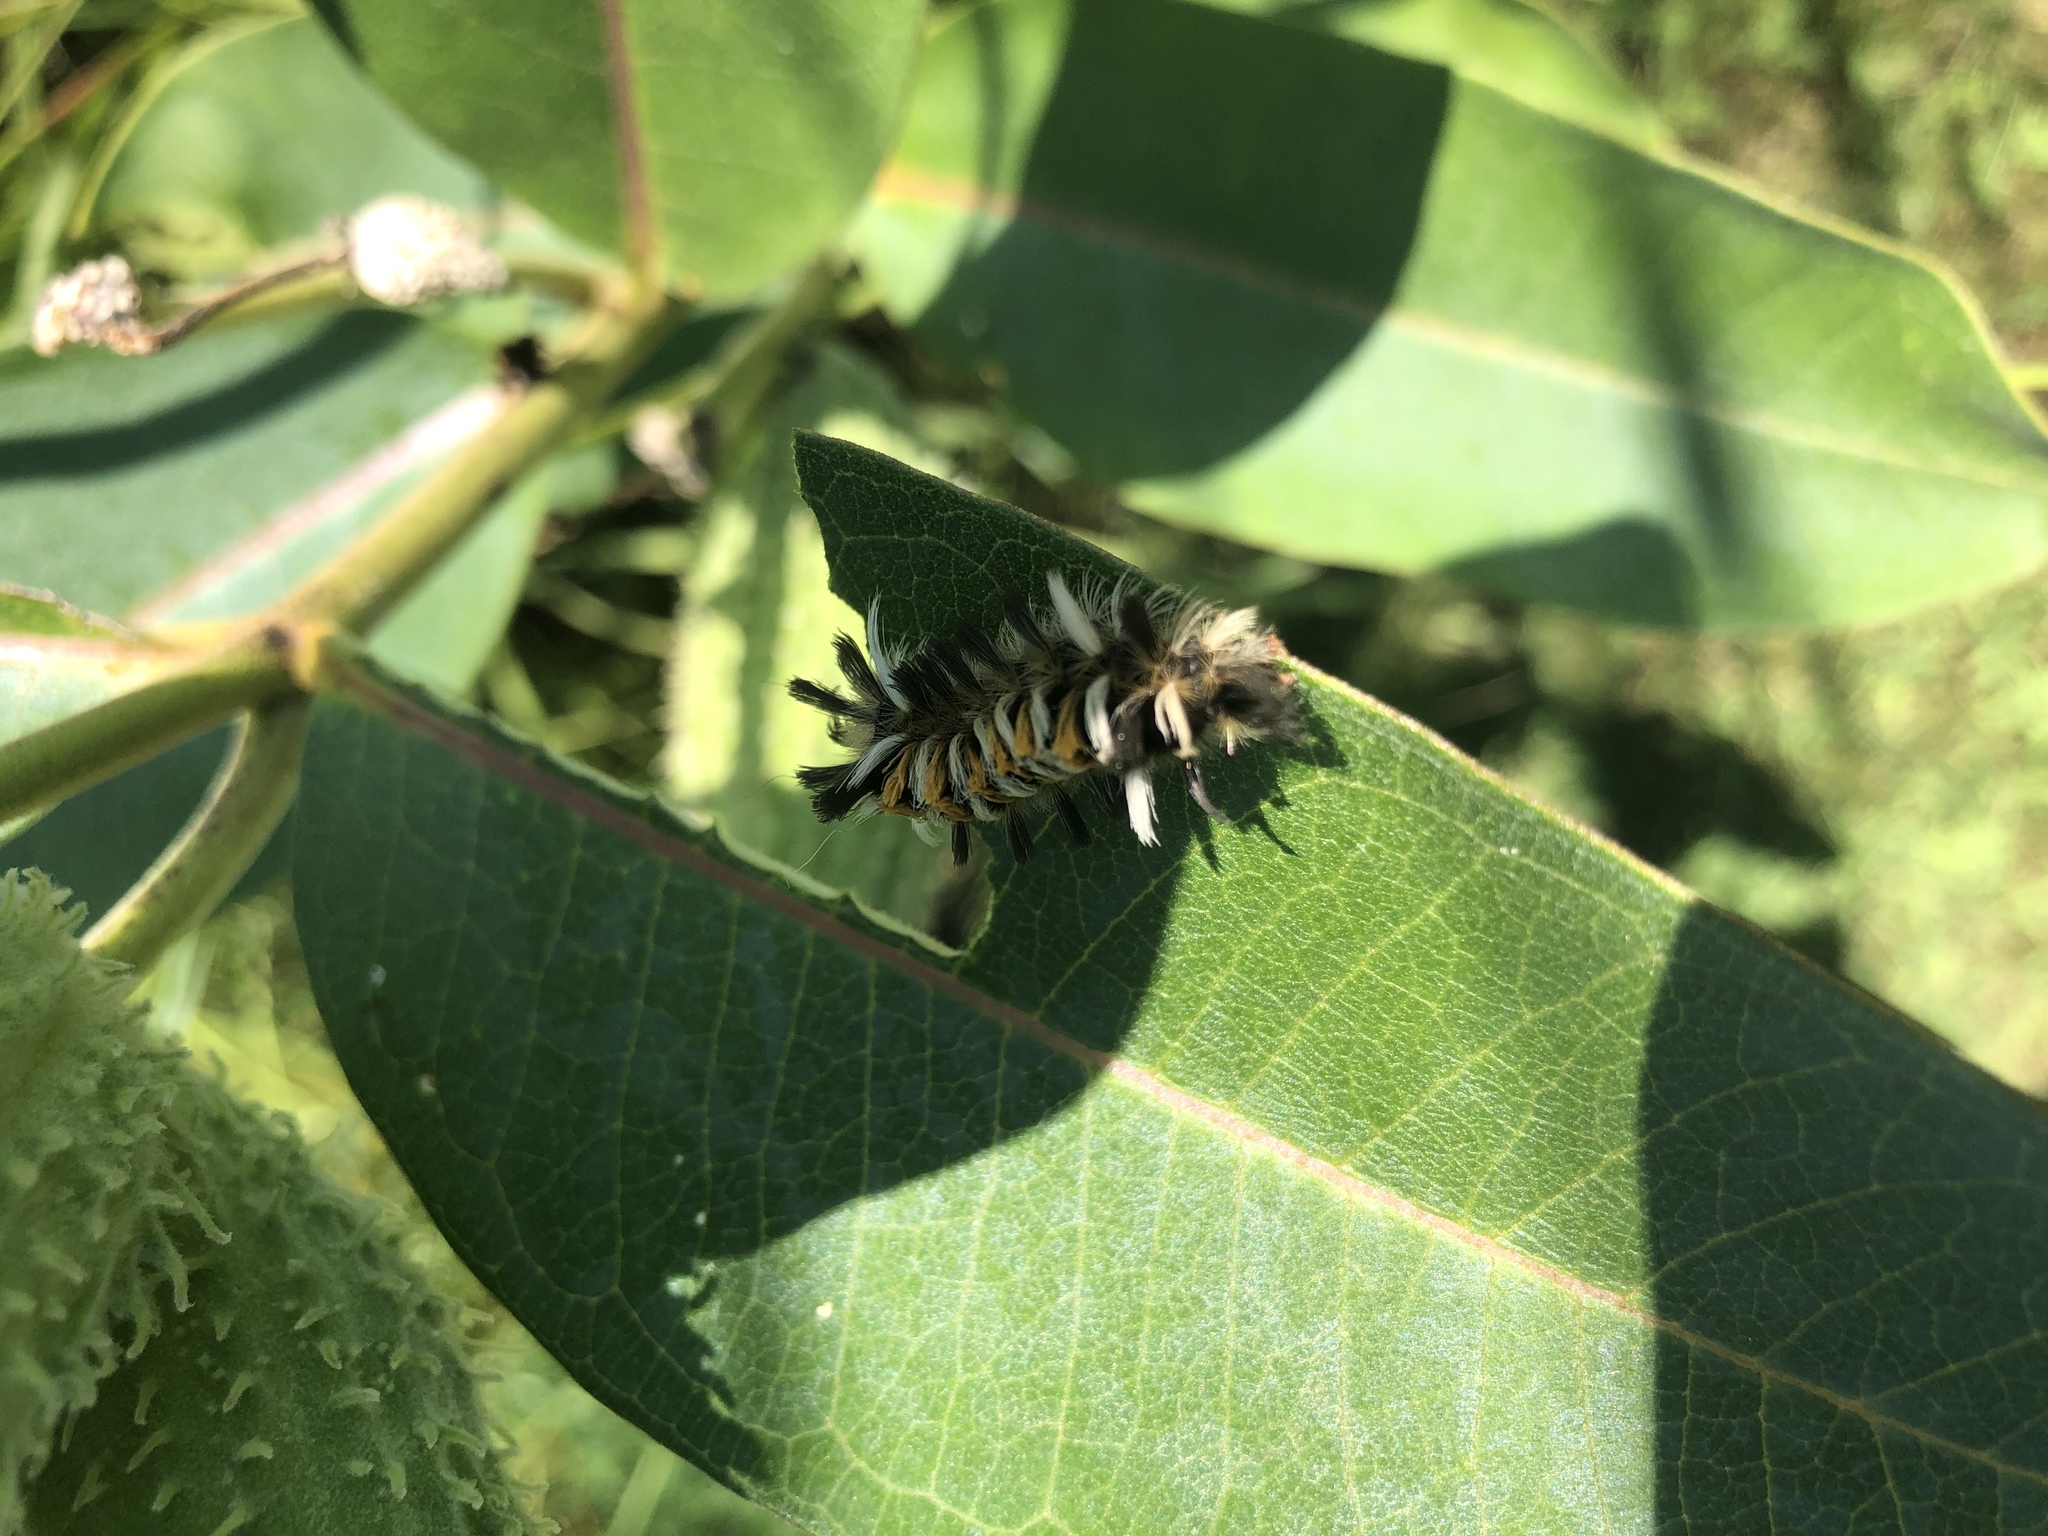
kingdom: Animalia
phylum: Arthropoda
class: Insecta
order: Lepidoptera
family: Erebidae
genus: Euchaetes
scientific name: Euchaetes egle
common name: Milkweed tussock moth
